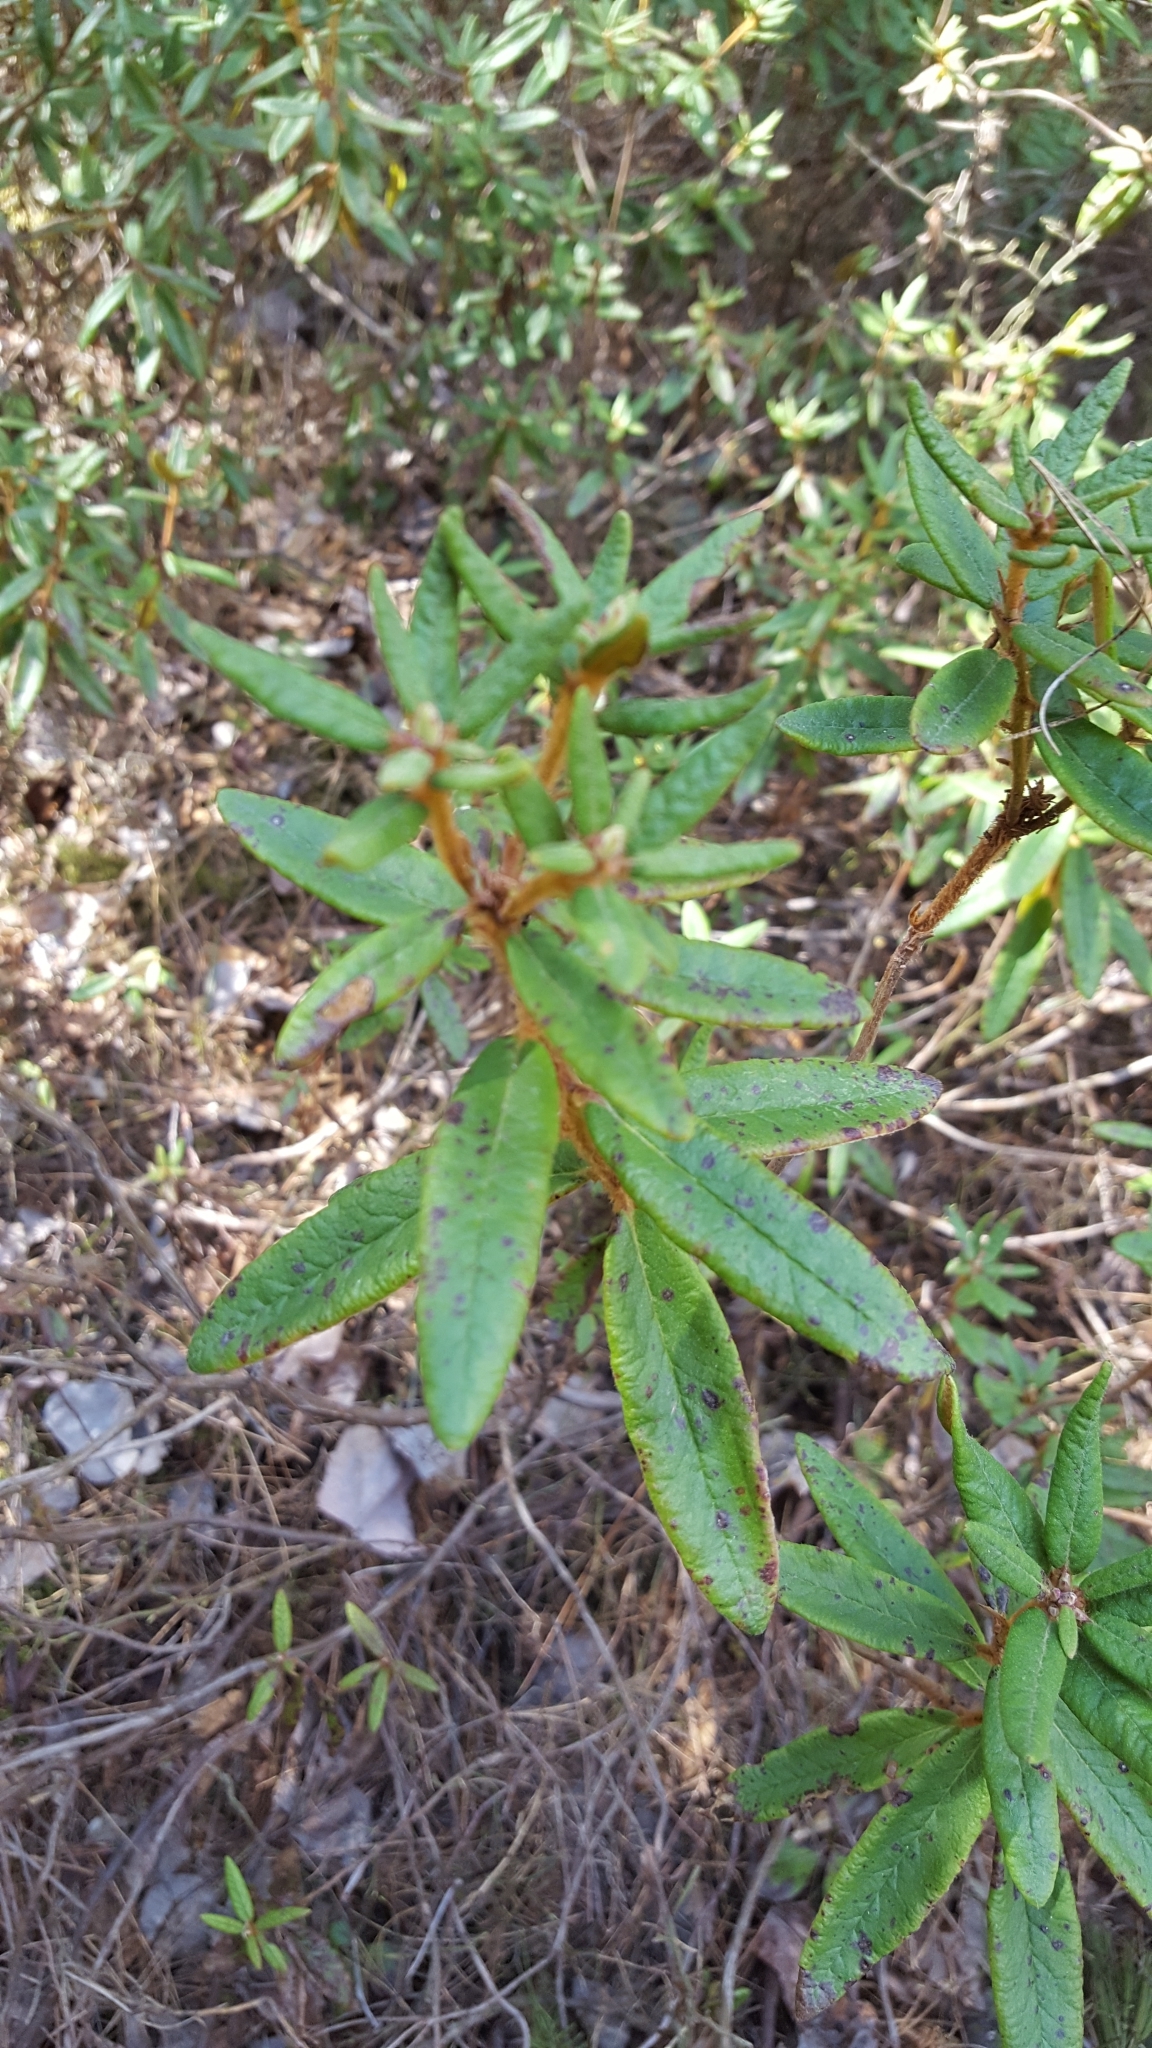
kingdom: Plantae
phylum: Tracheophyta
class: Magnoliopsida
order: Ericales
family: Ericaceae
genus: Rhododendron
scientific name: Rhododendron groenlandicum
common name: Bog labrador tea
